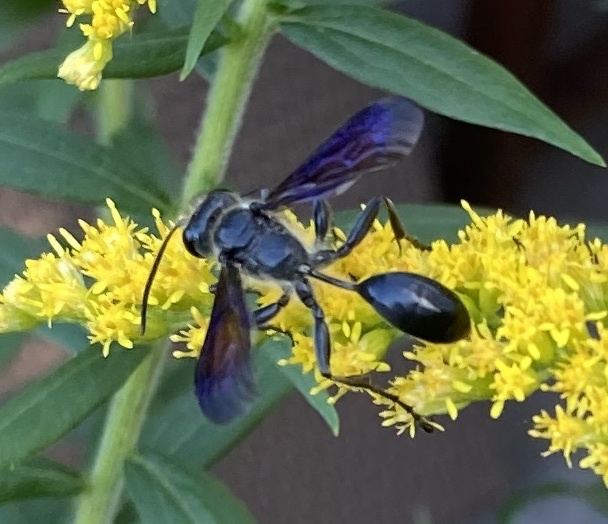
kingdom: Animalia
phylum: Arthropoda
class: Insecta
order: Hymenoptera
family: Sphecidae
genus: Isodontia
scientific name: Isodontia mexicana
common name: Mud dauber
